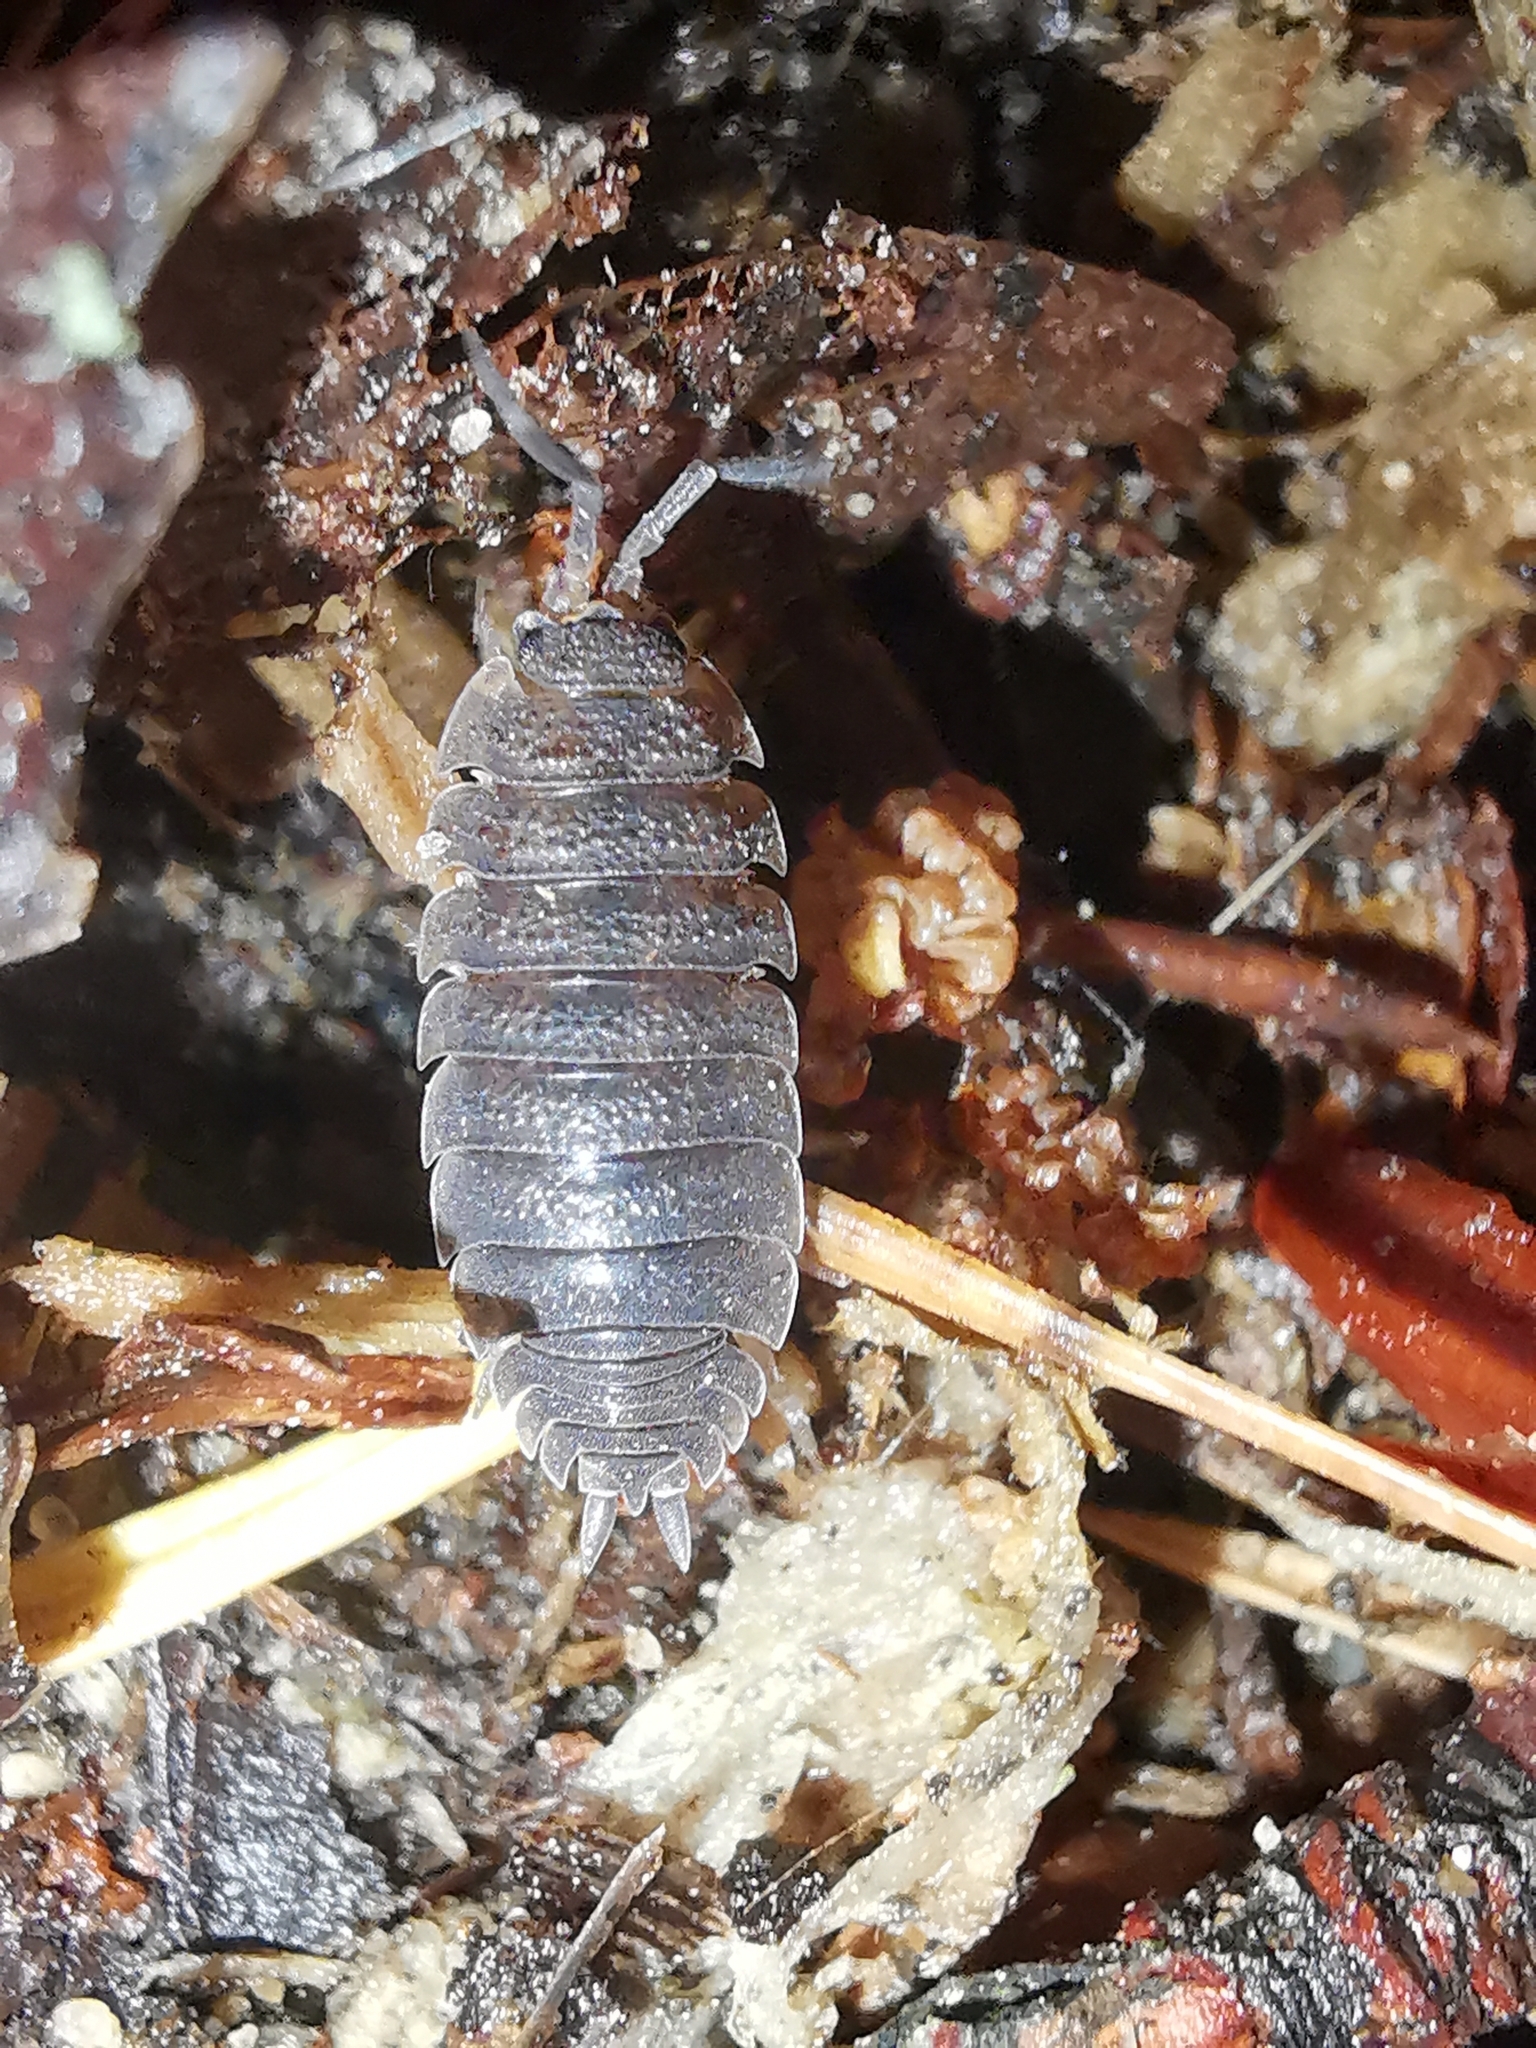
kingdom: Animalia
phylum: Arthropoda
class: Malacostraca
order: Isopoda
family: Porcellionidae
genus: Porcellio
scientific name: Porcellio scaber
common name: Common rough woodlouse
